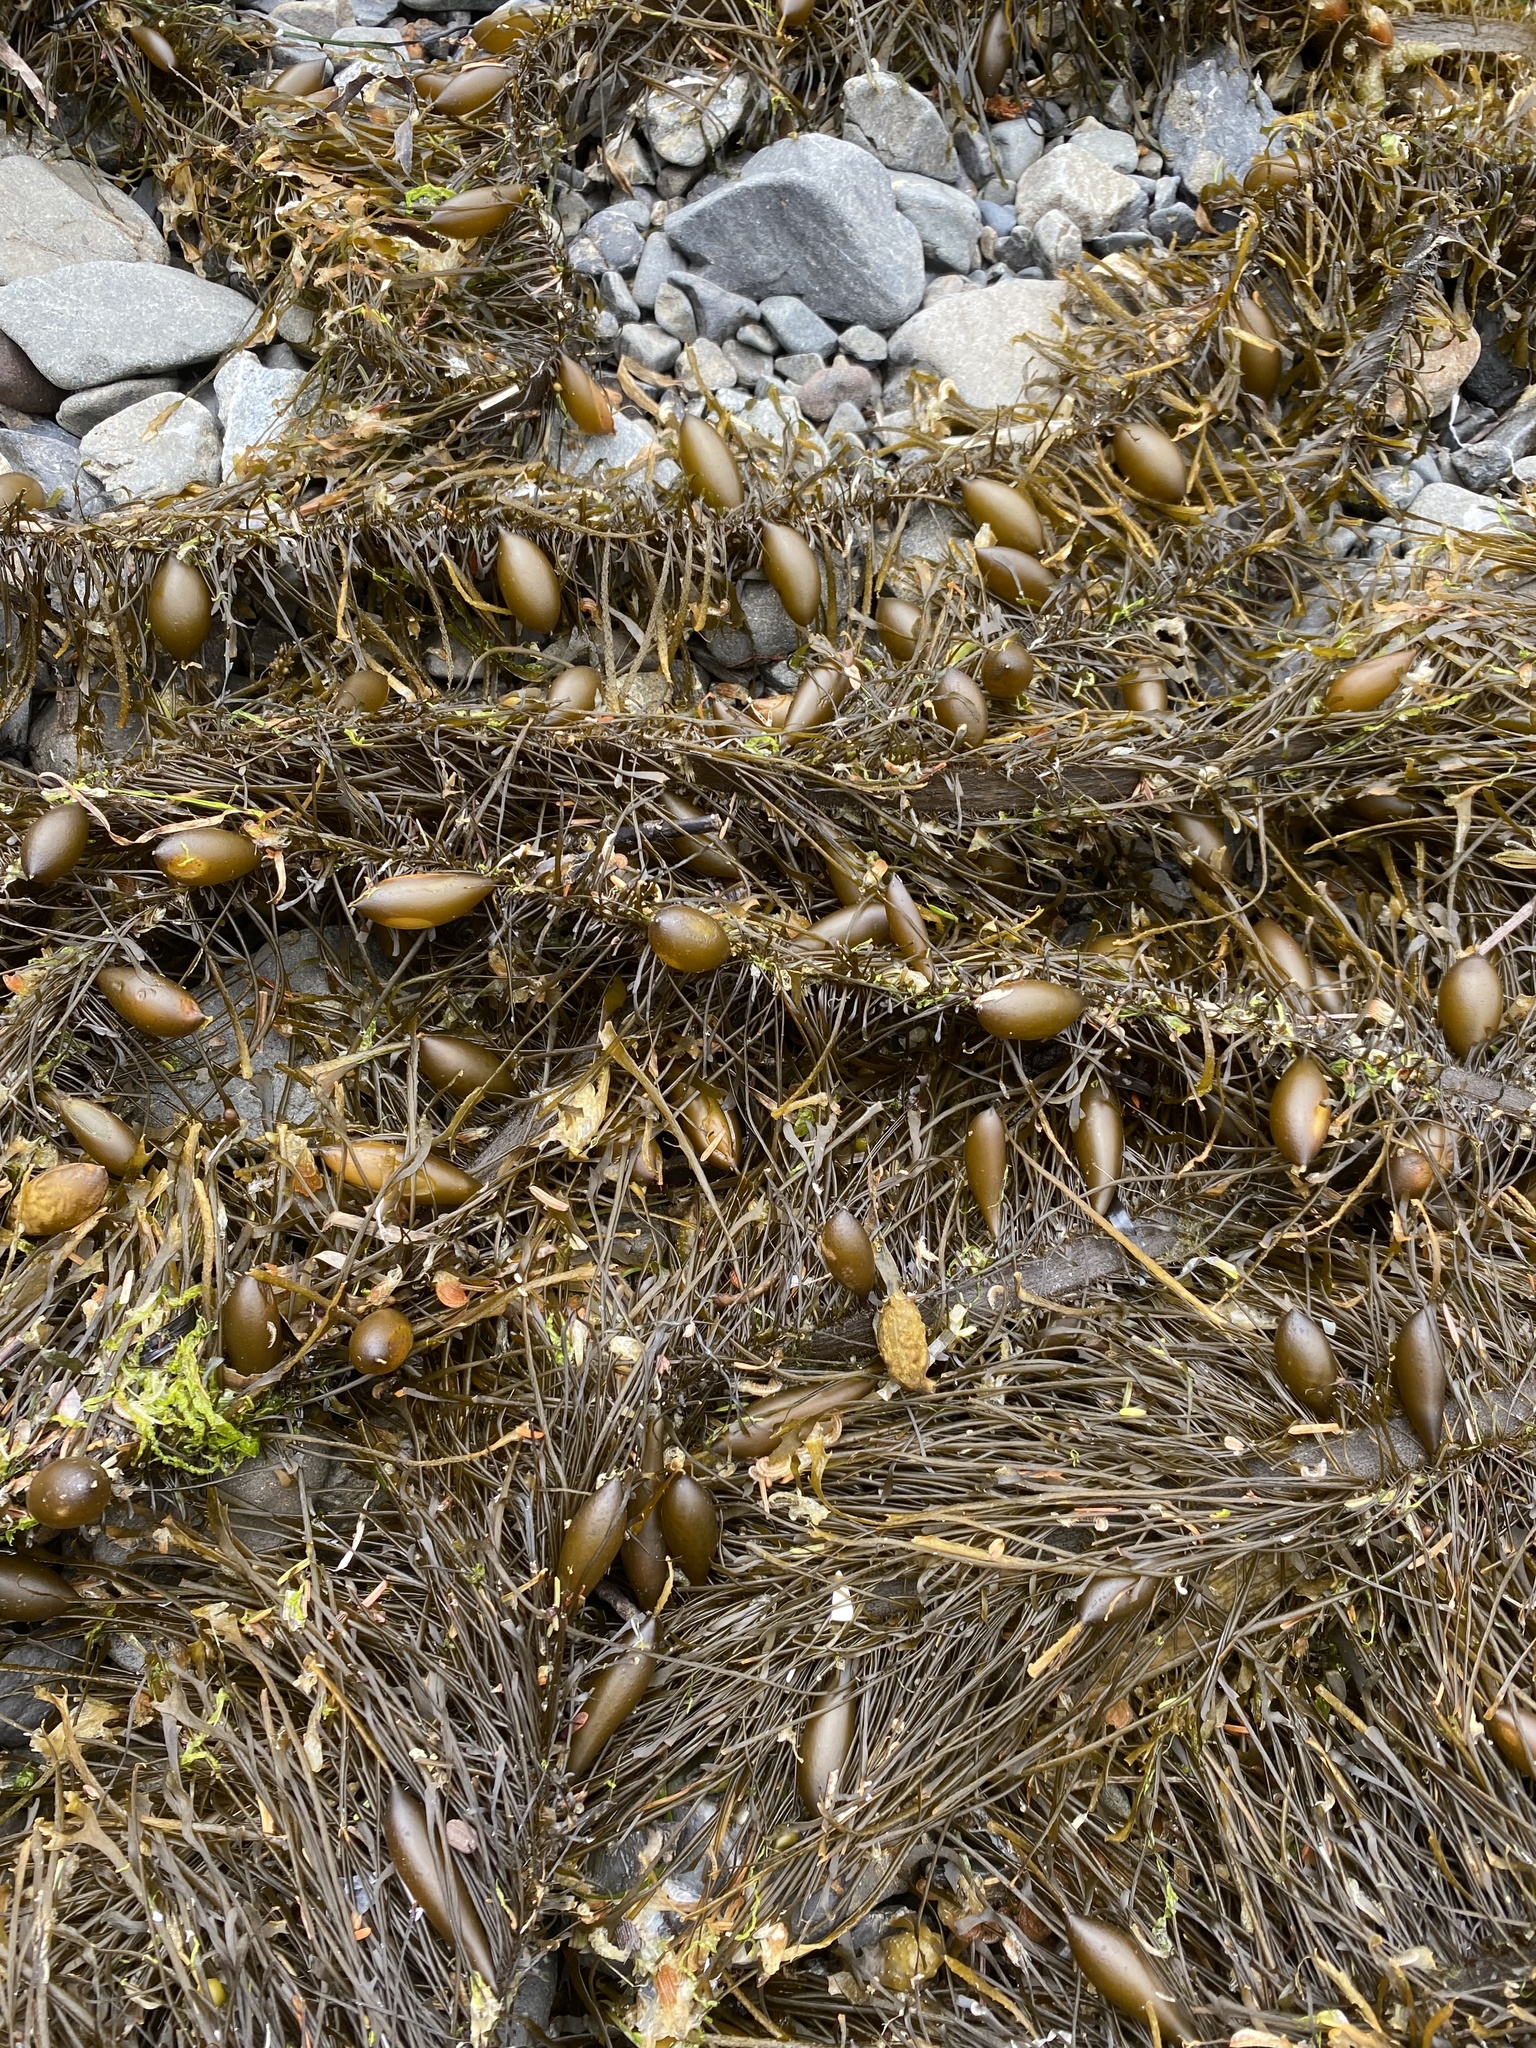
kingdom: Chromista
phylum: Ochrophyta
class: Phaeophyceae
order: Laminariales
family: Lessoniaceae
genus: Egregia
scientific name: Egregia menziesii
